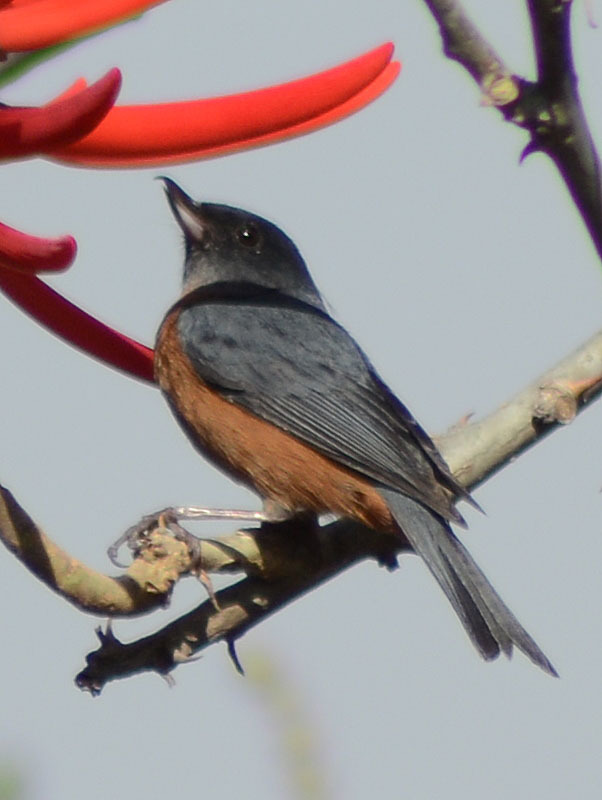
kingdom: Animalia
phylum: Chordata
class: Aves
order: Passeriformes
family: Thraupidae
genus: Diglossa
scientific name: Diglossa baritula
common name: Cinnamon-bellied flowerpiercer
